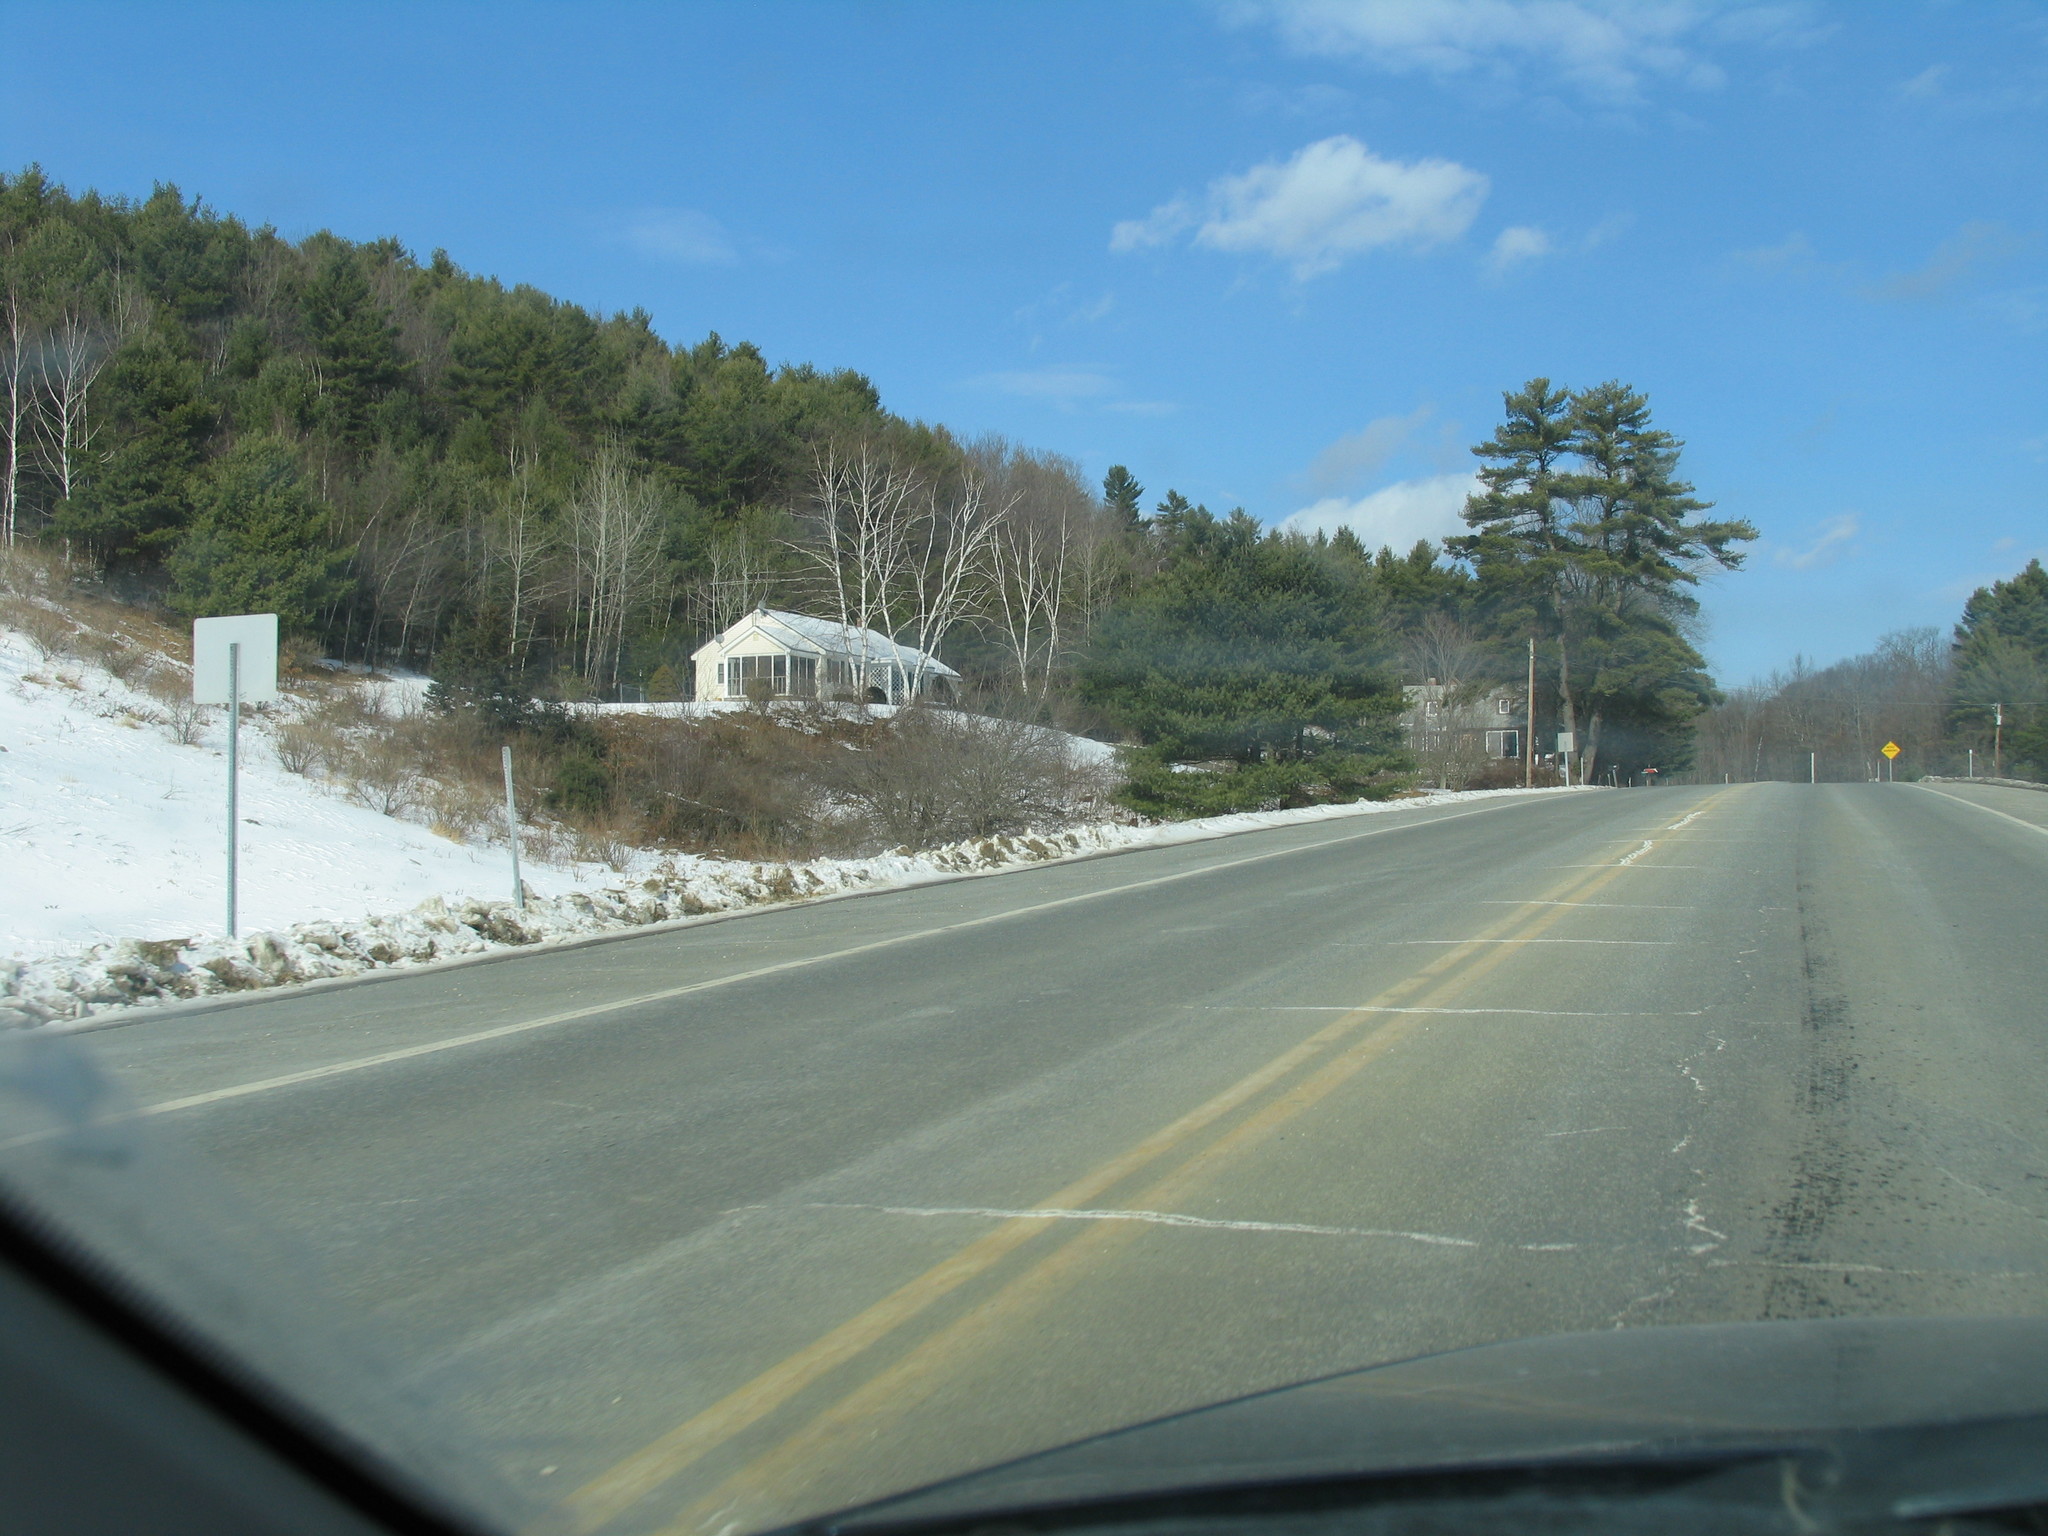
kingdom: Plantae
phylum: Tracheophyta
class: Pinopsida
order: Pinales
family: Pinaceae
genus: Pinus
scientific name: Pinus strobus
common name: Weymouth pine
